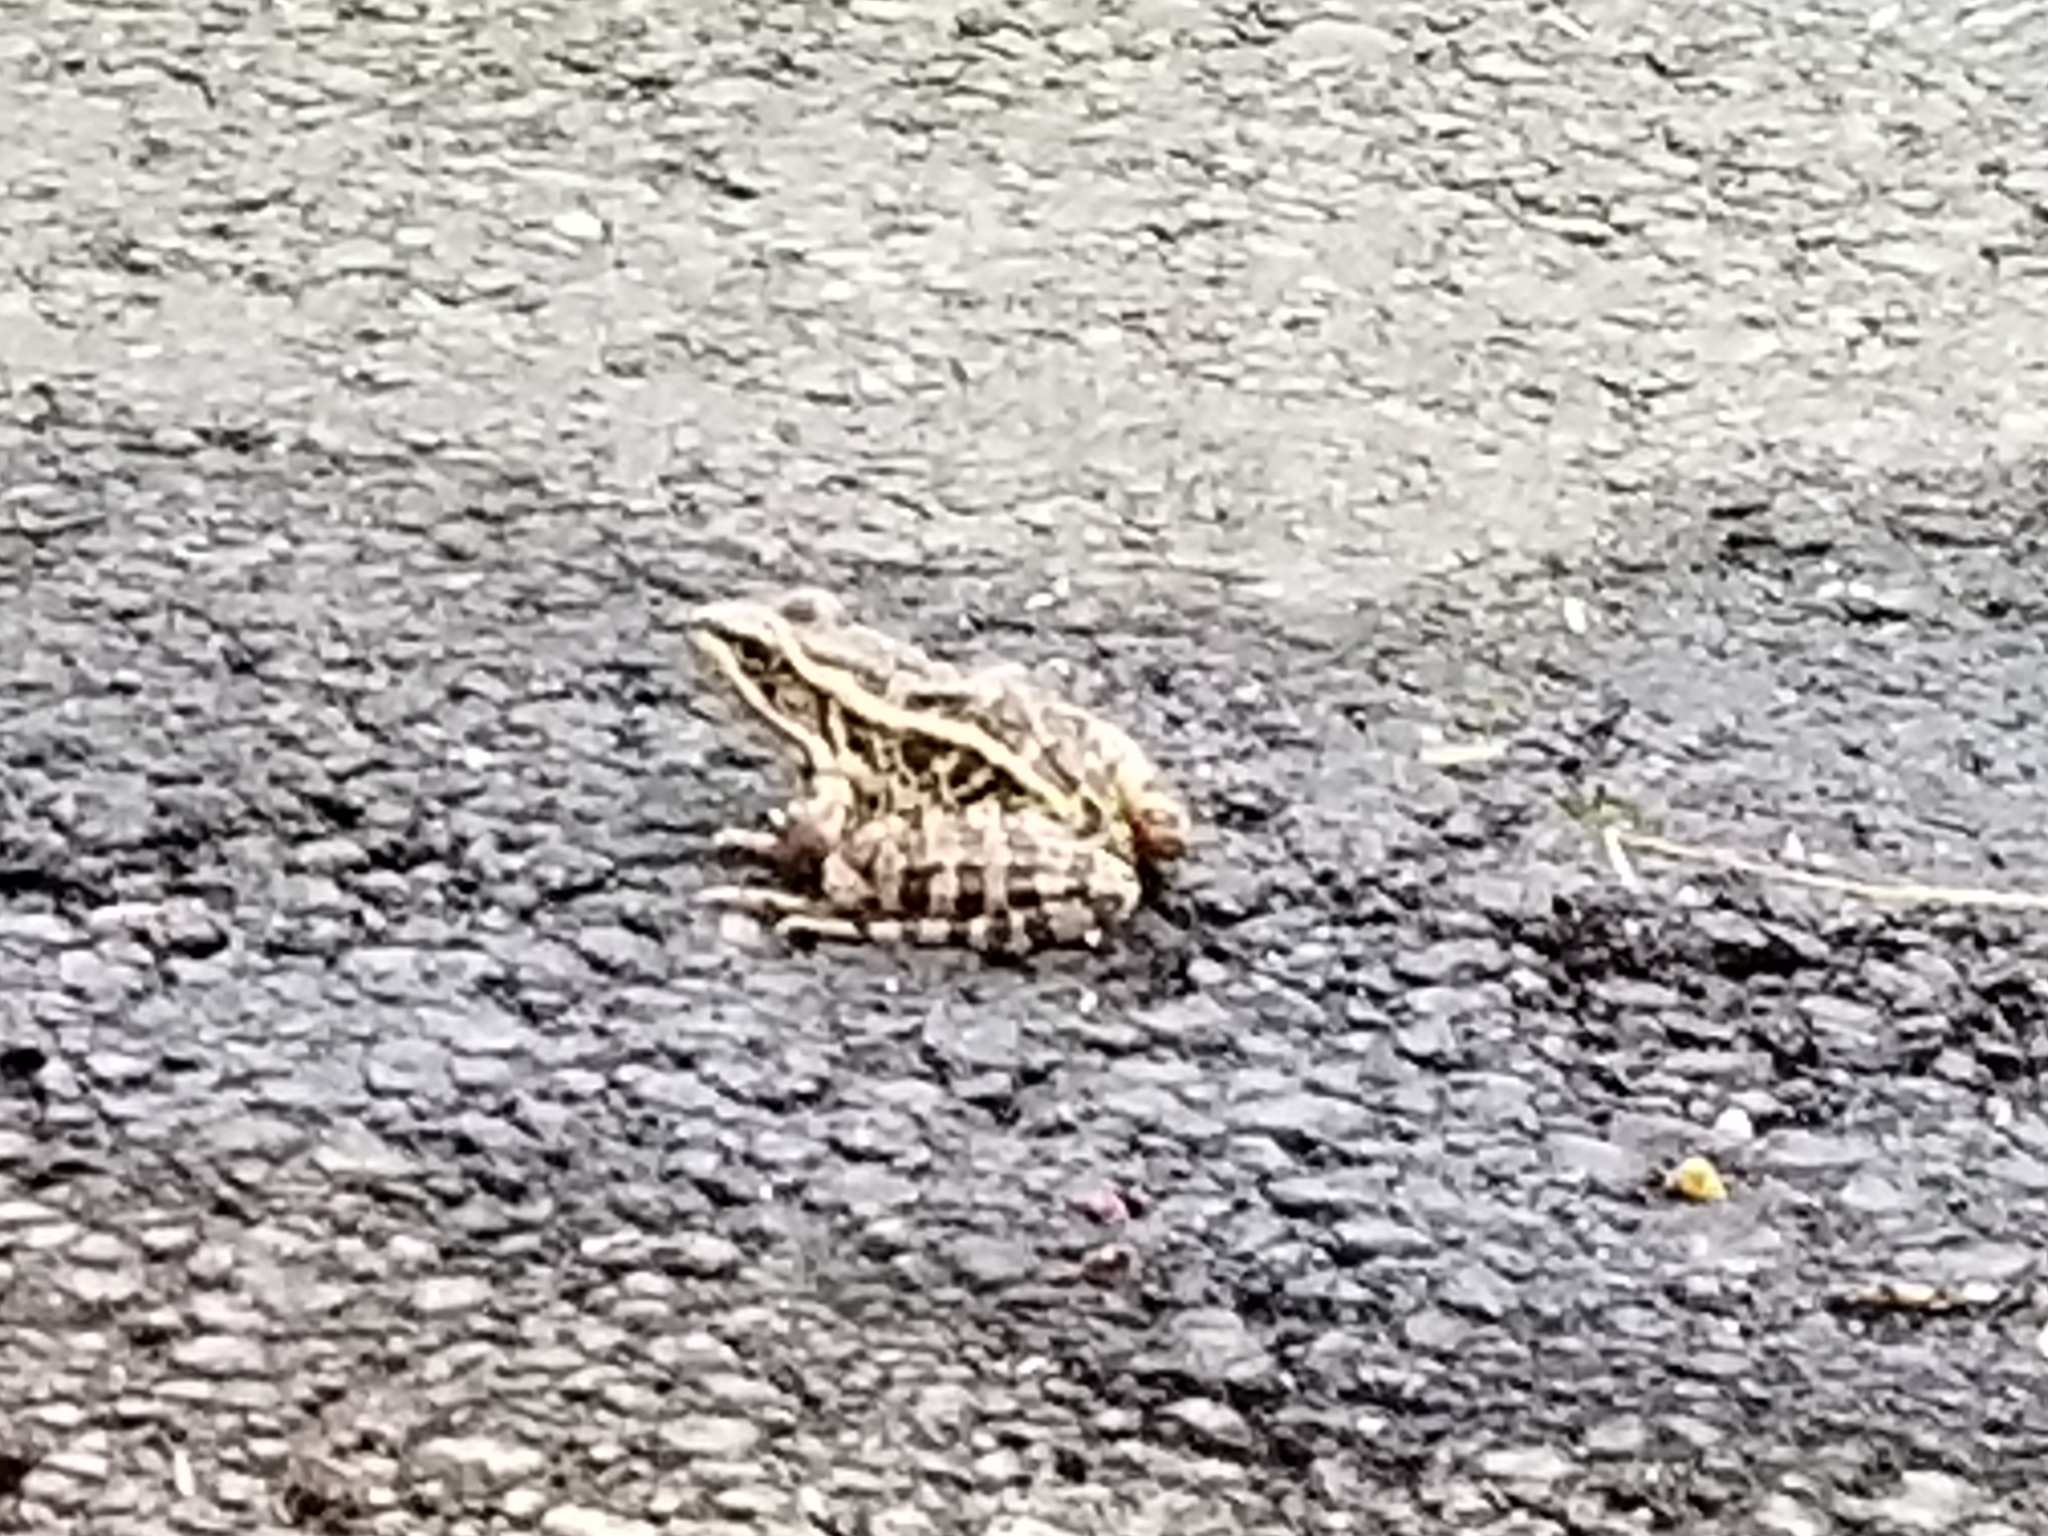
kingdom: Animalia
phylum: Chordata
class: Amphibia
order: Anura
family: Ranidae
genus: Lithobates
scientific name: Lithobates palustris
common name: Pickerel frog
